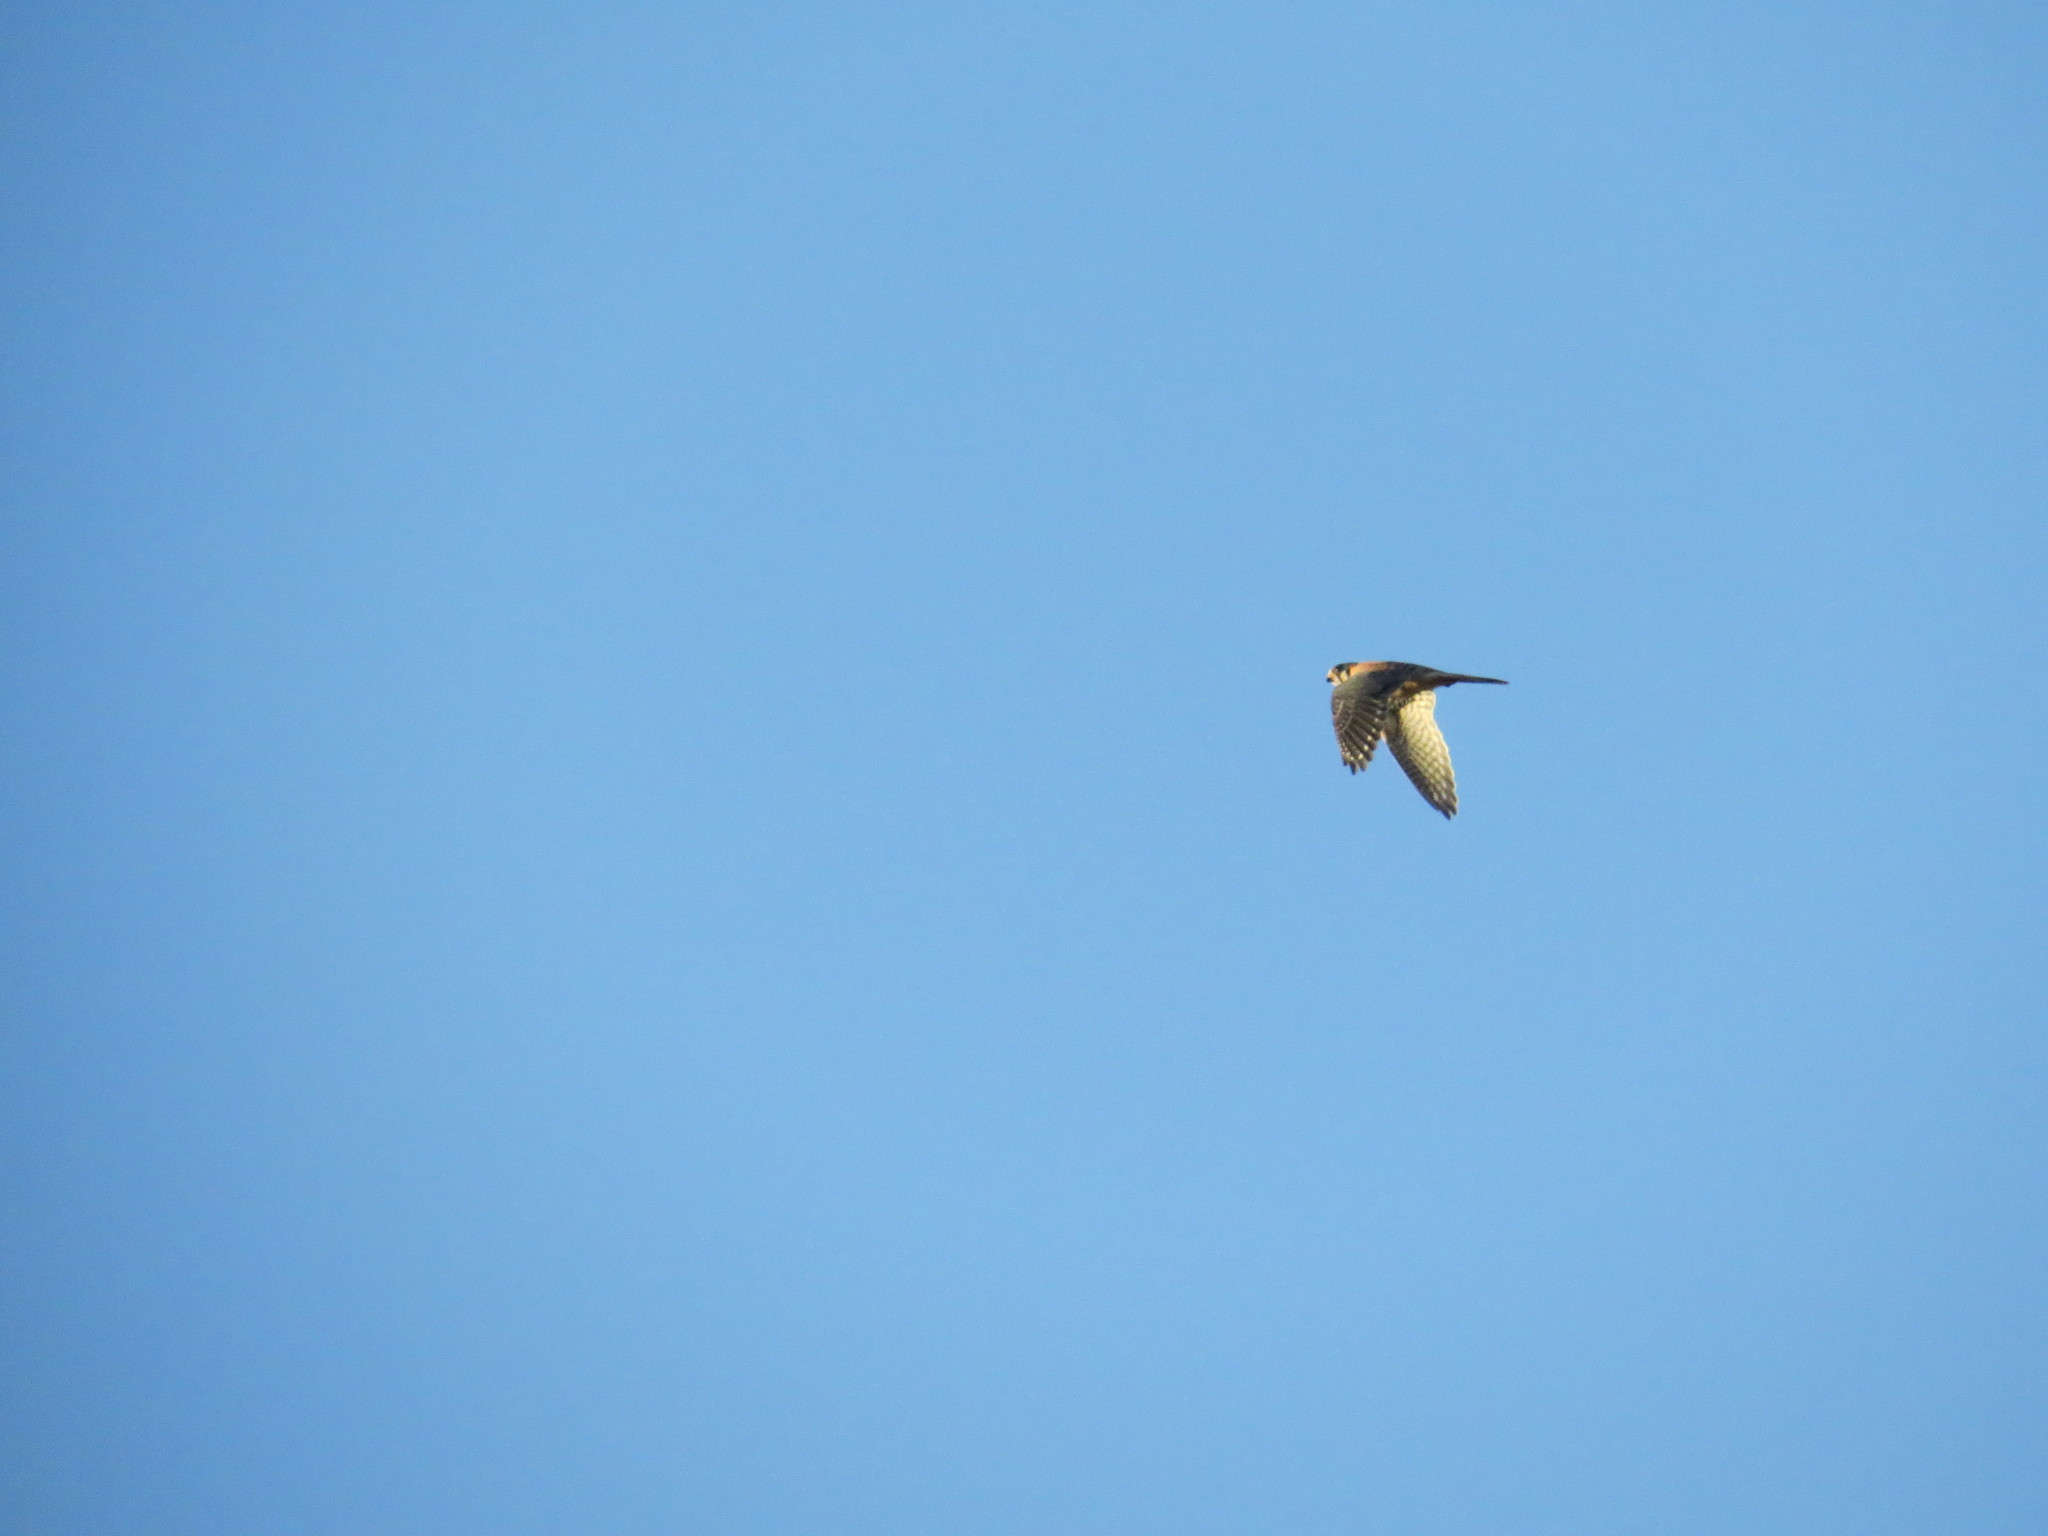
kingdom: Animalia
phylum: Chordata
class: Aves
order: Falconiformes
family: Falconidae
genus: Falco
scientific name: Falco sparverius
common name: American kestrel
